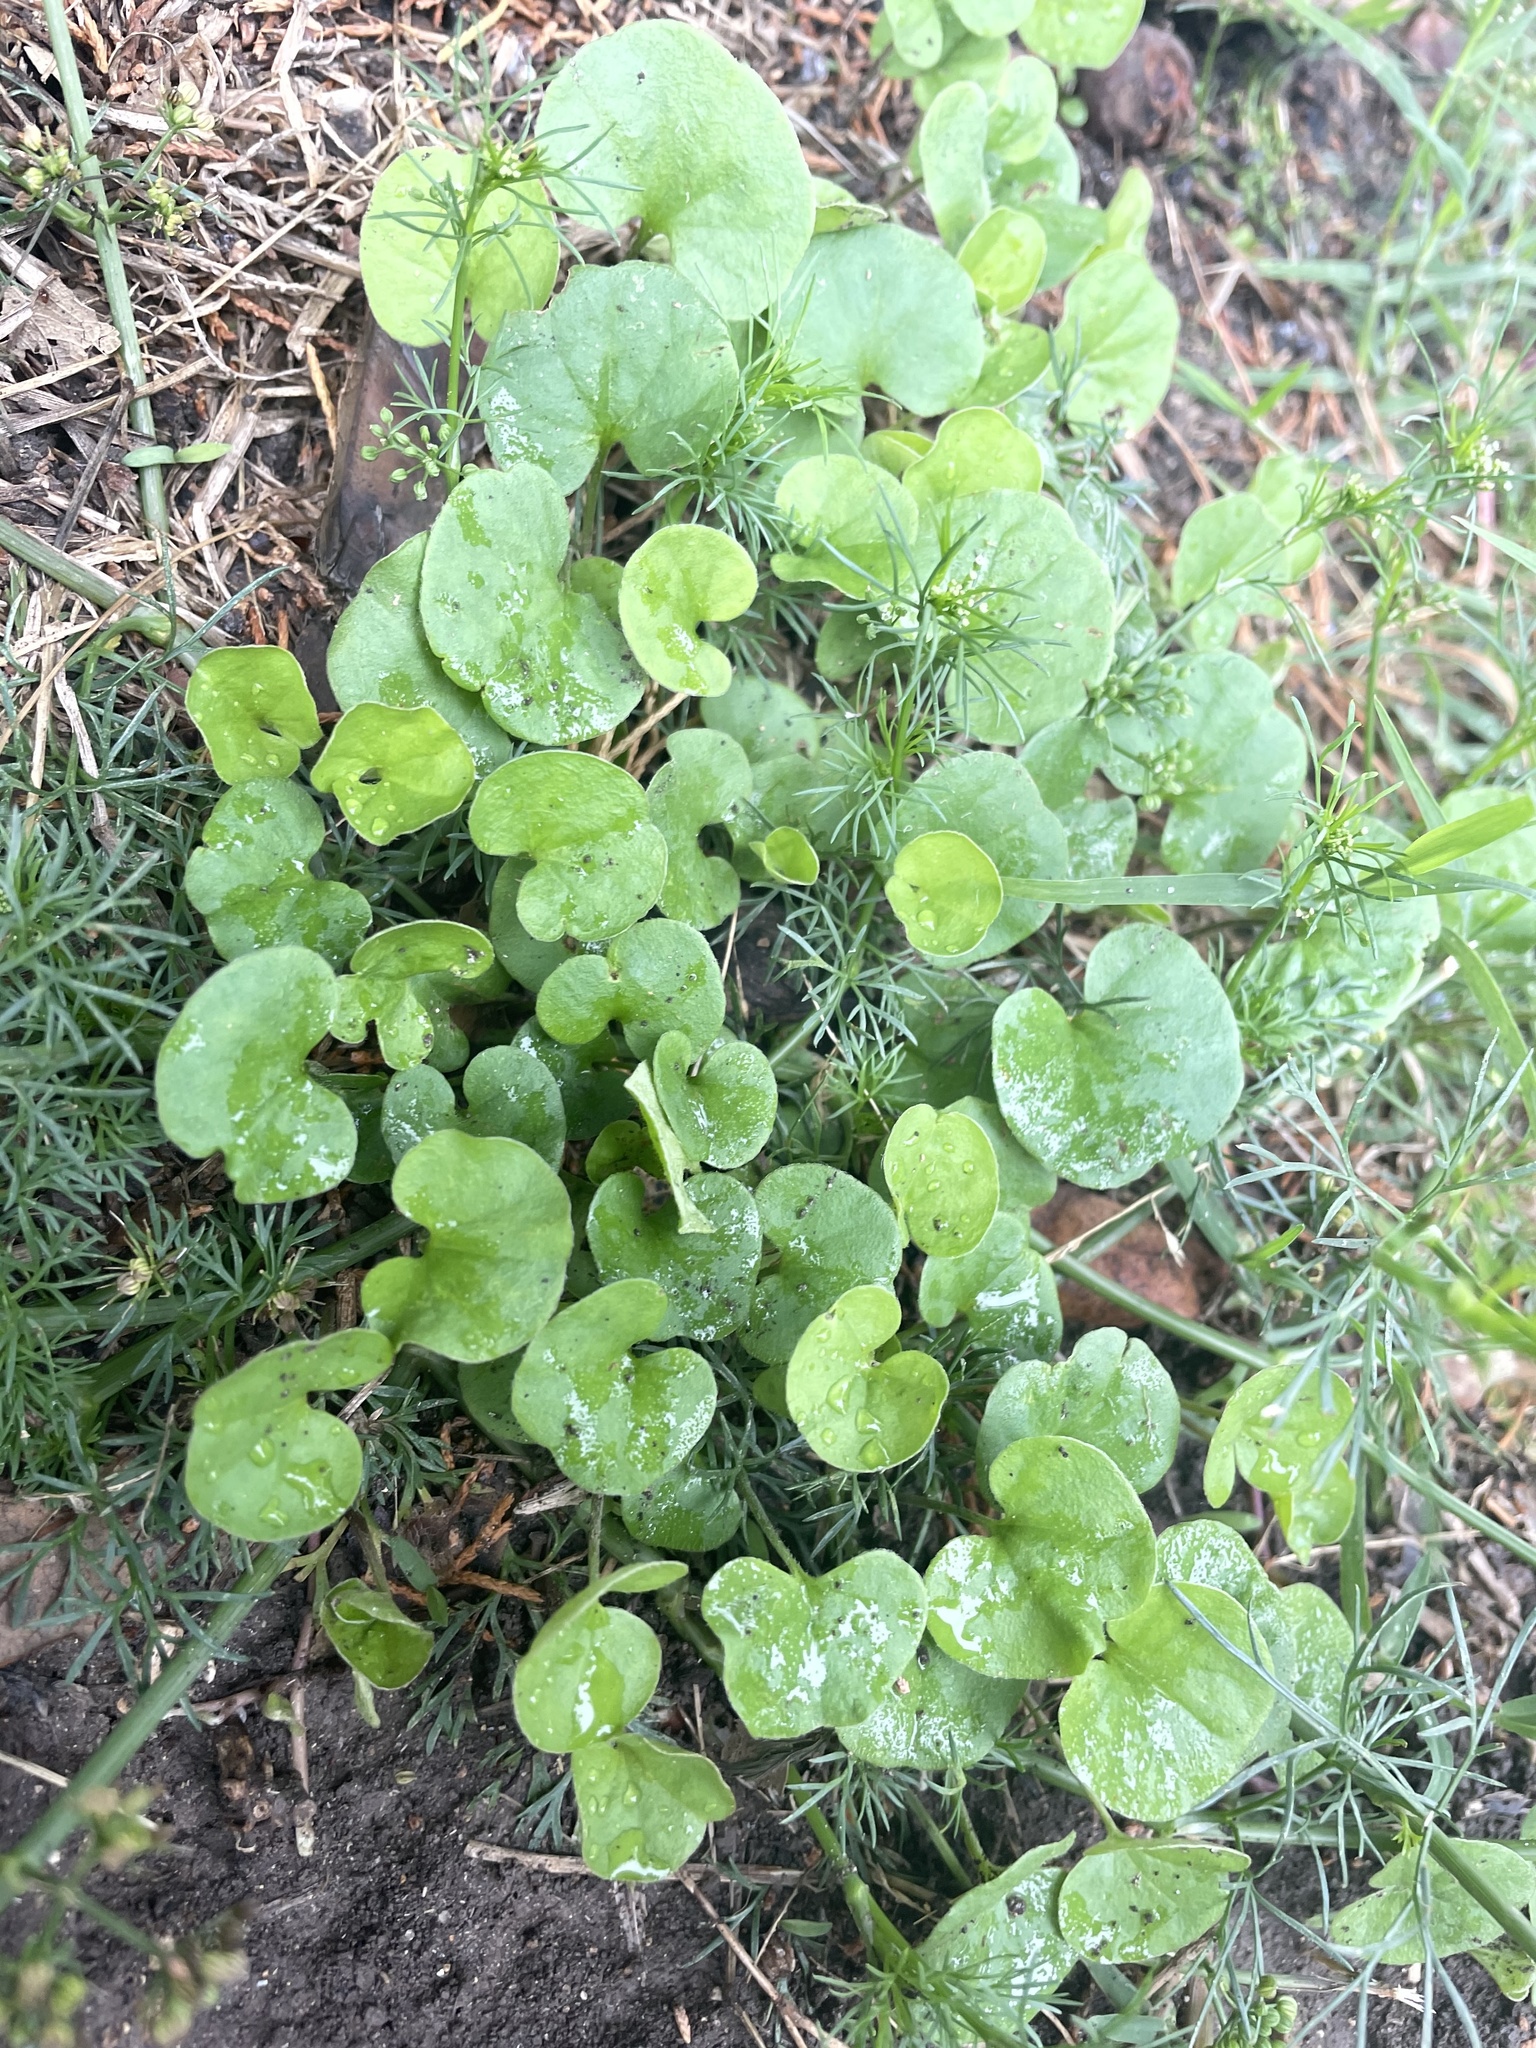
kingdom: Plantae
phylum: Tracheophyta
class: Magnoliopsida
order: Solanales
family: Convolvulaceae
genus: Dichondra
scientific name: Dichondra carolinensis
